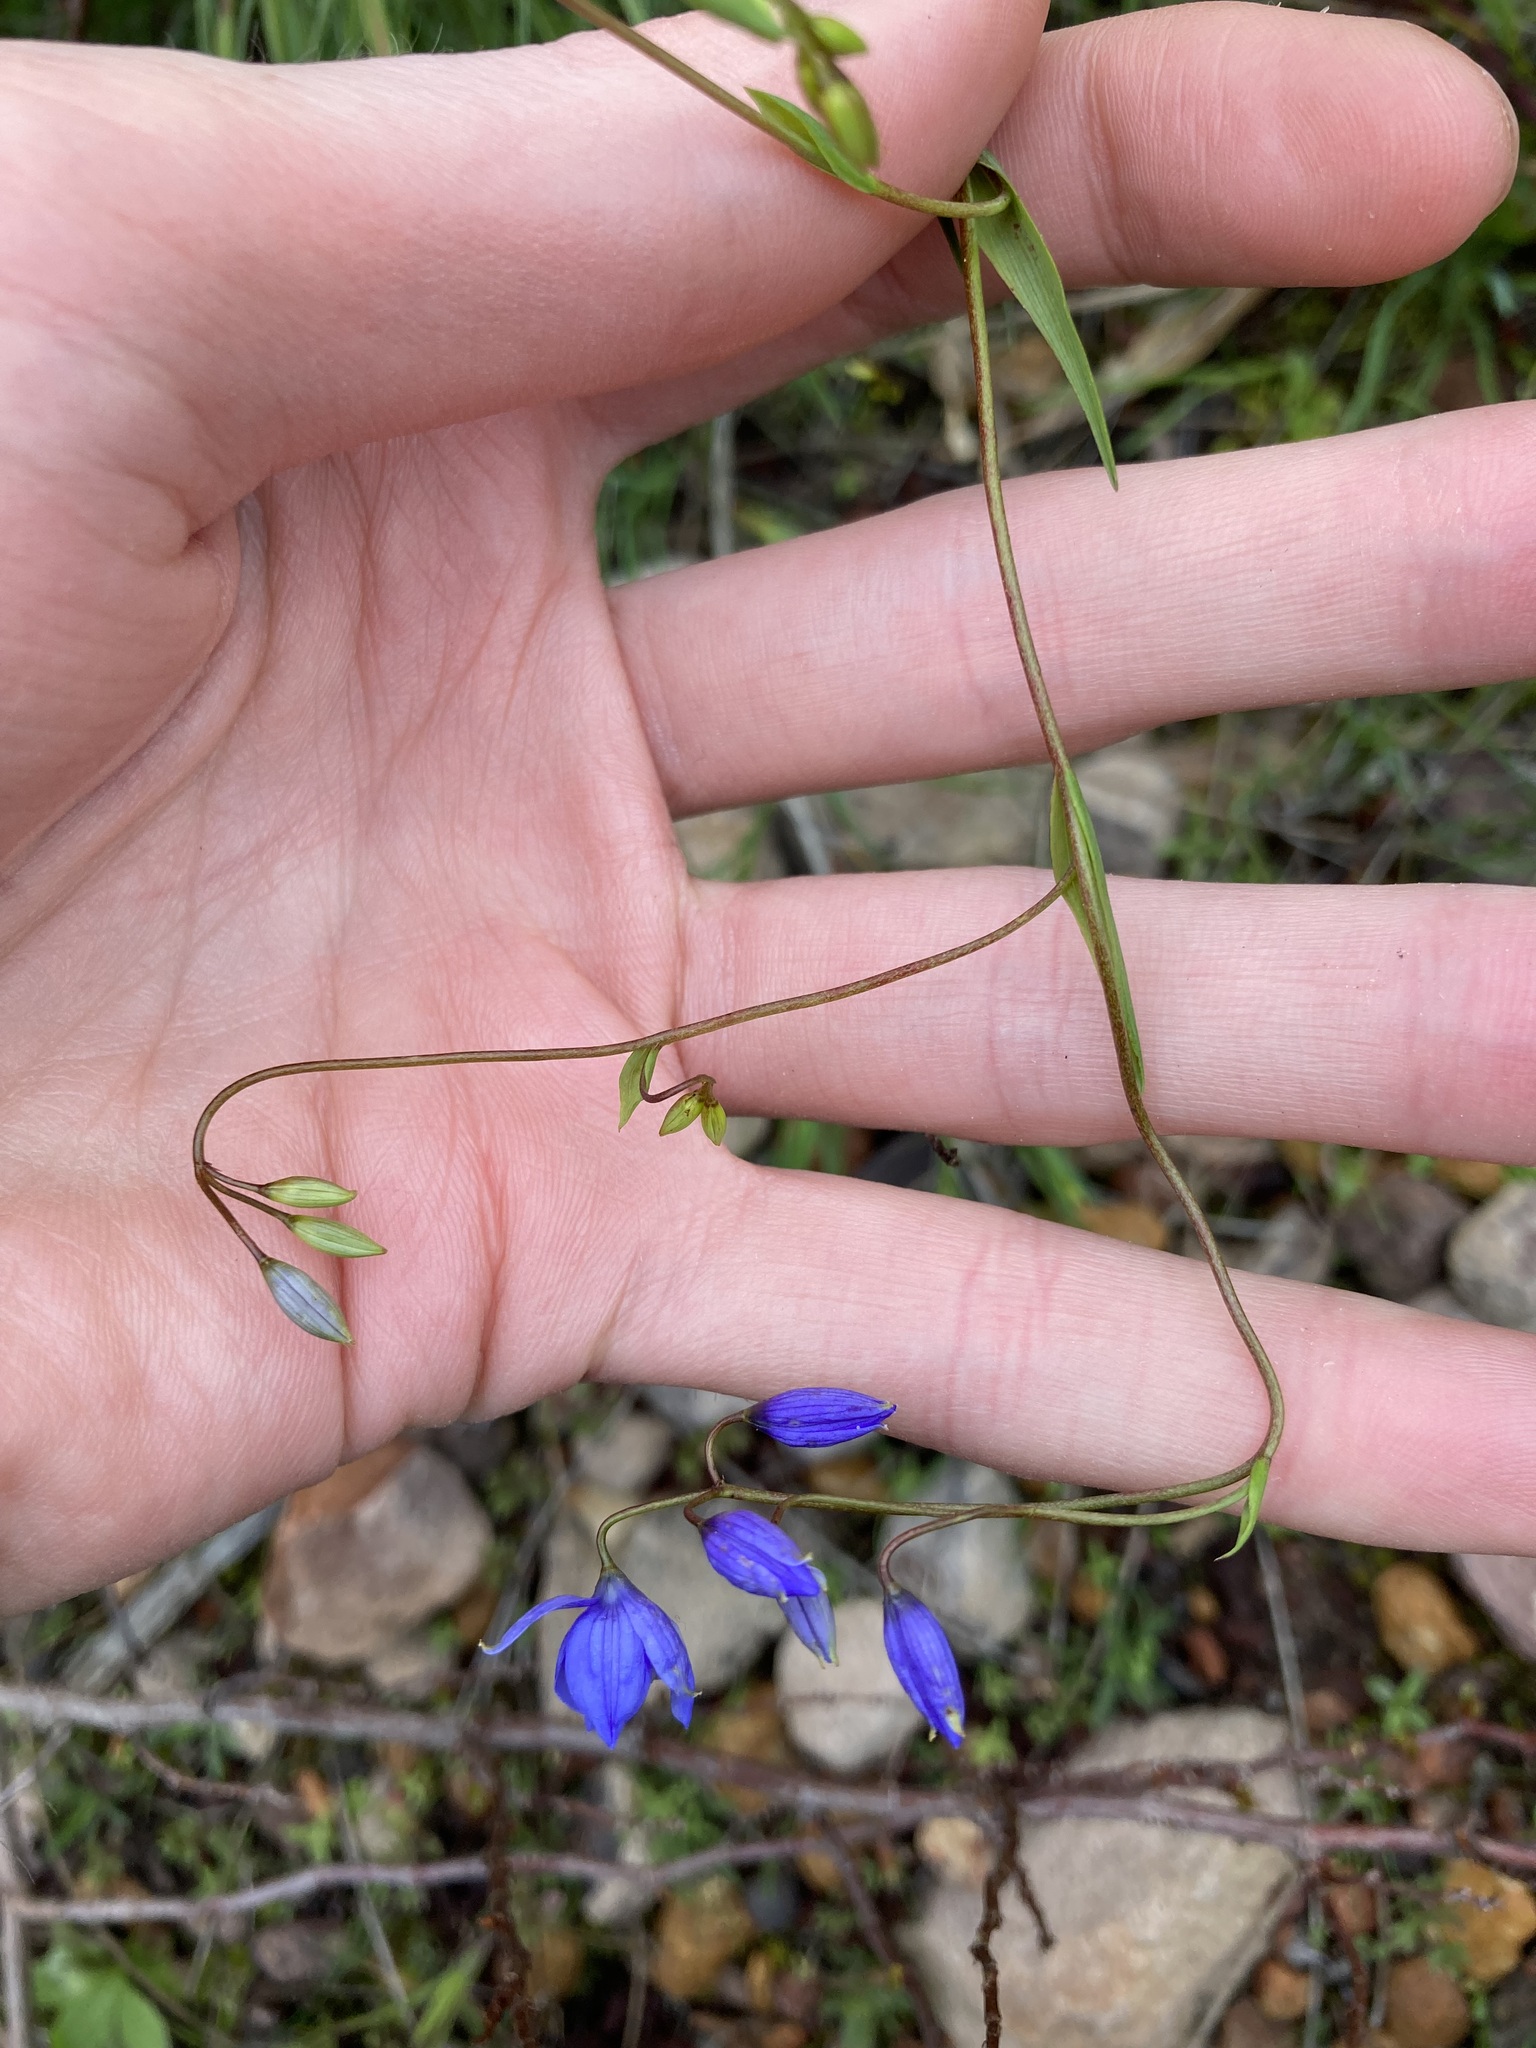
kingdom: Plantae
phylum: Tracheophyta
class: Liliopsida
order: Asparagales
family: Asphodelaceae
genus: Stypandra
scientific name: Stypandra glauca
